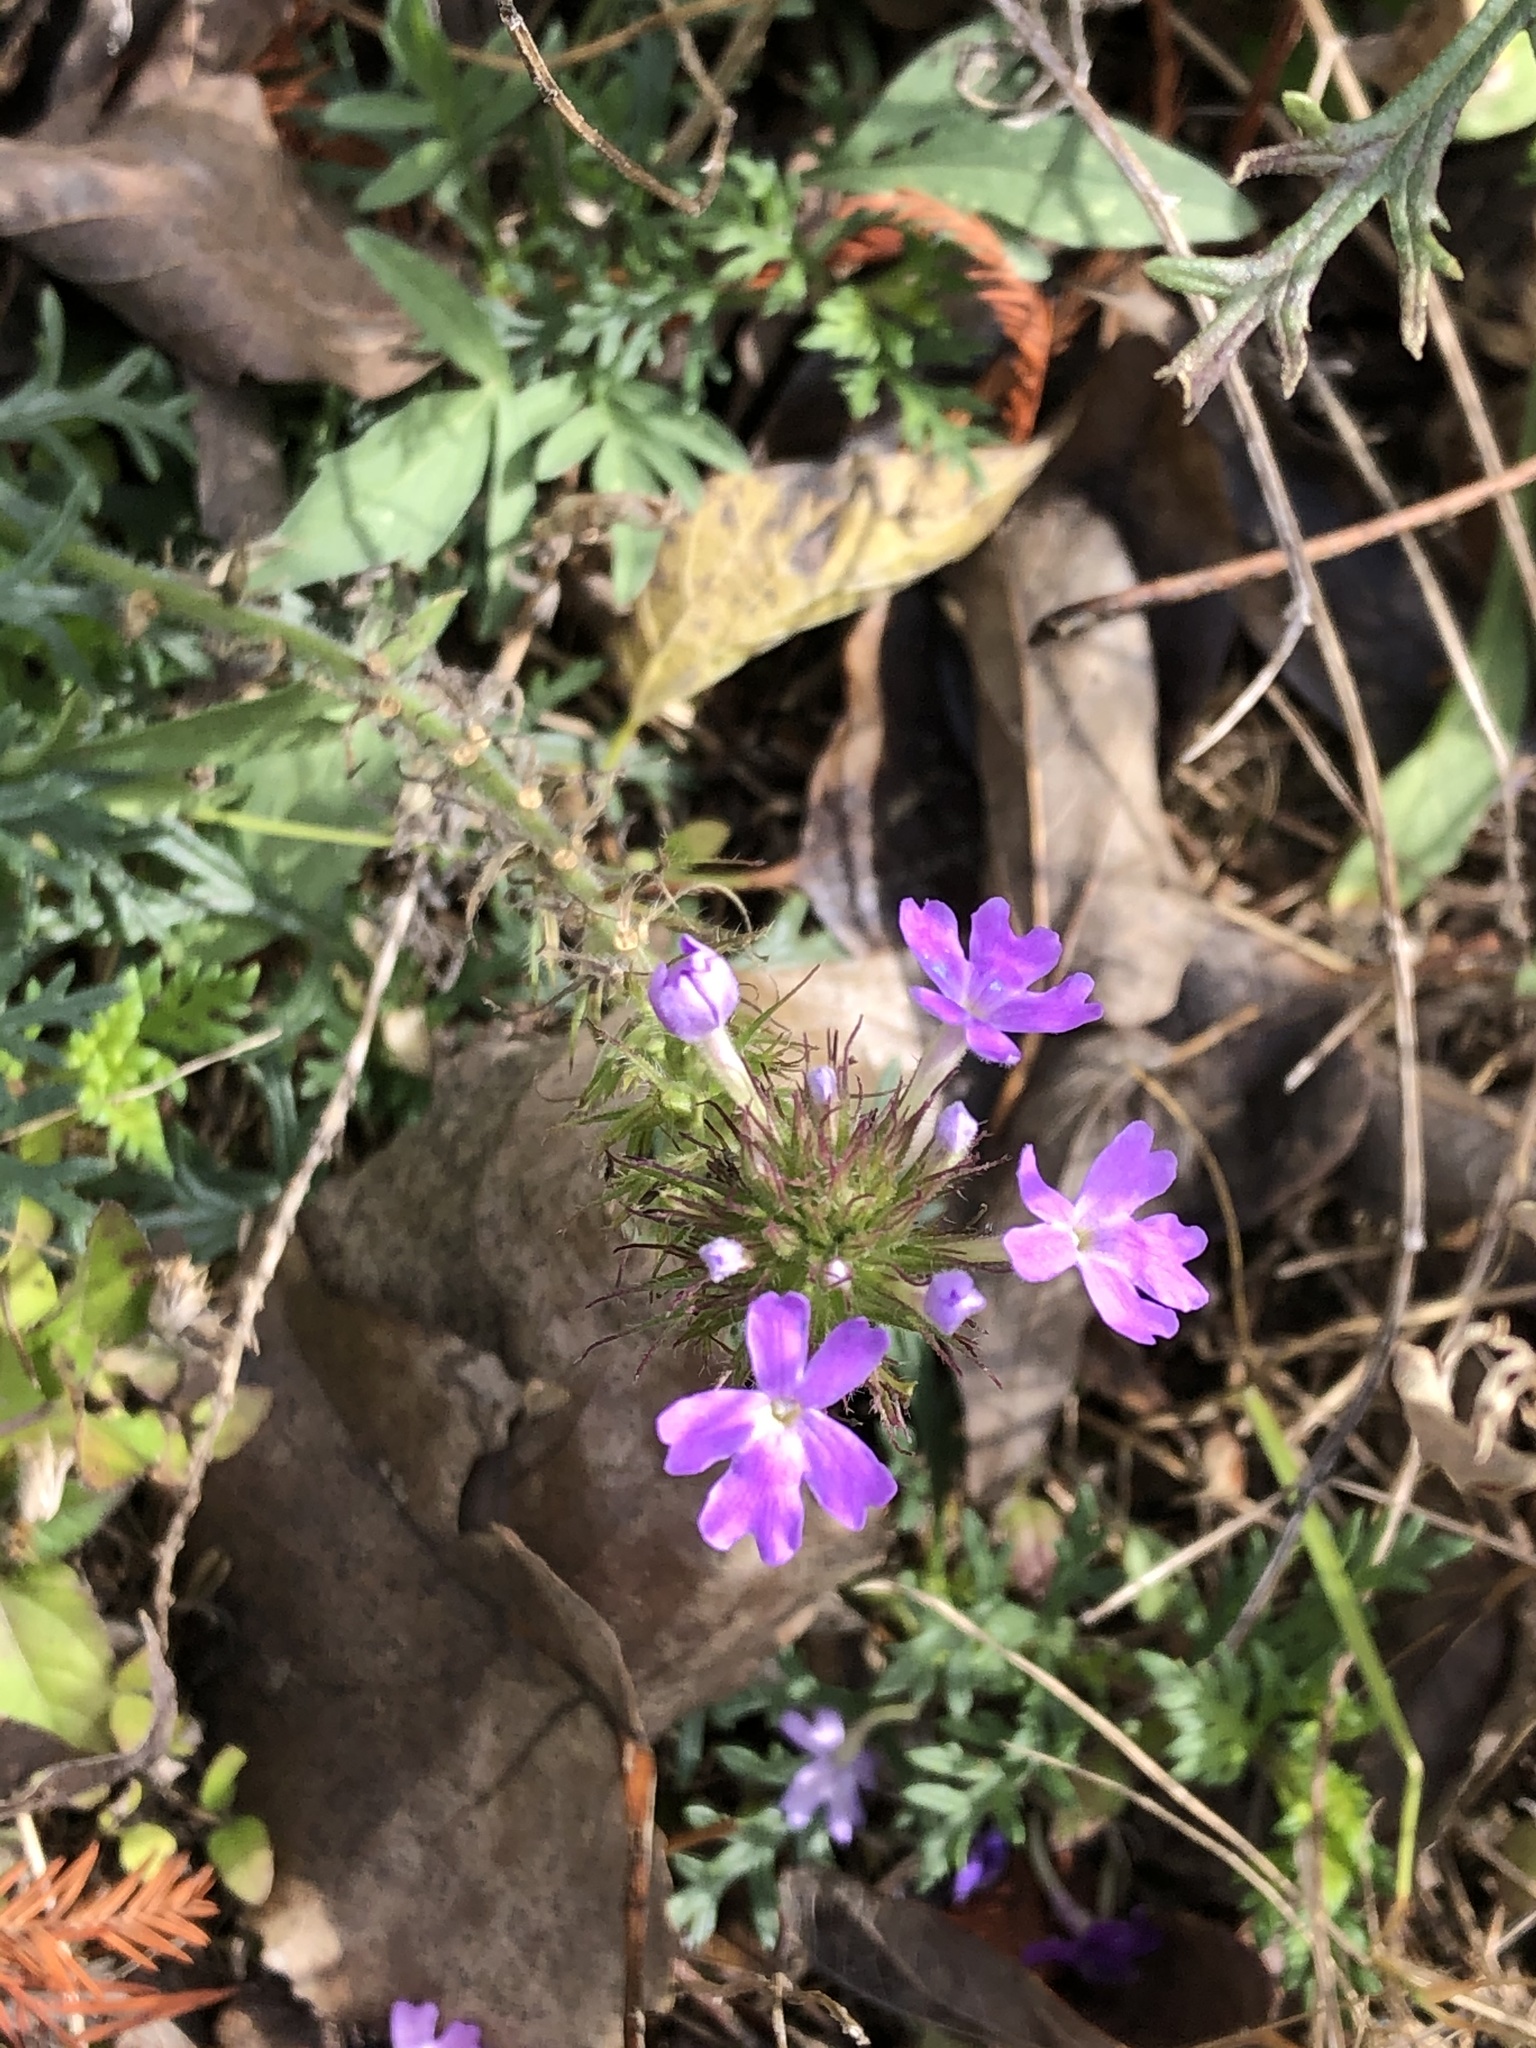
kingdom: Plantae
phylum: Tracheophyta
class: Magnoliopsida
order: Lamiales
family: Verbenaceae
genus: Verbena
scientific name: Verbena bipinnatifida
